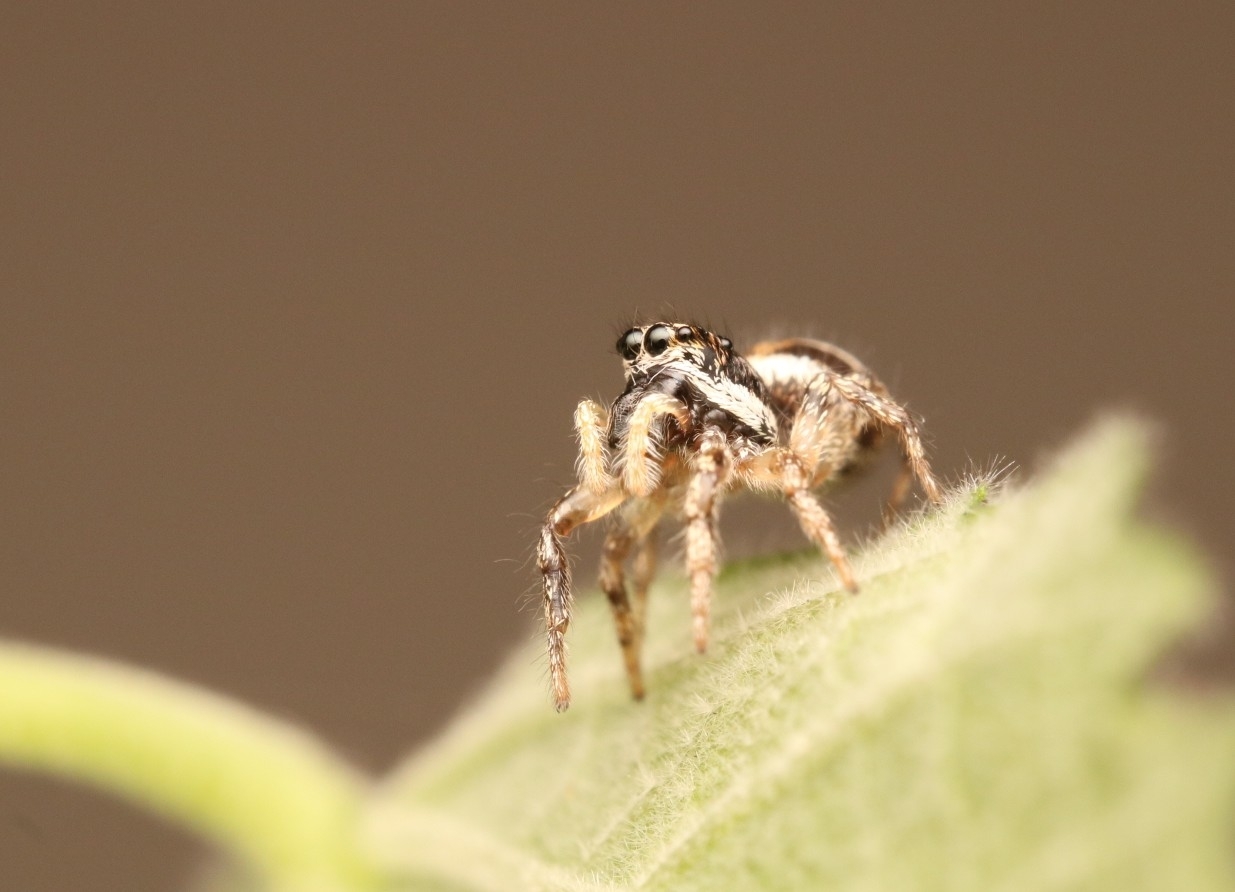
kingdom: Animalia
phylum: Arthropoda
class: Arachnida
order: Araneae
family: Salticidae
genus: Salticus
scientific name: Salticus scenicus
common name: Zebra jumper
